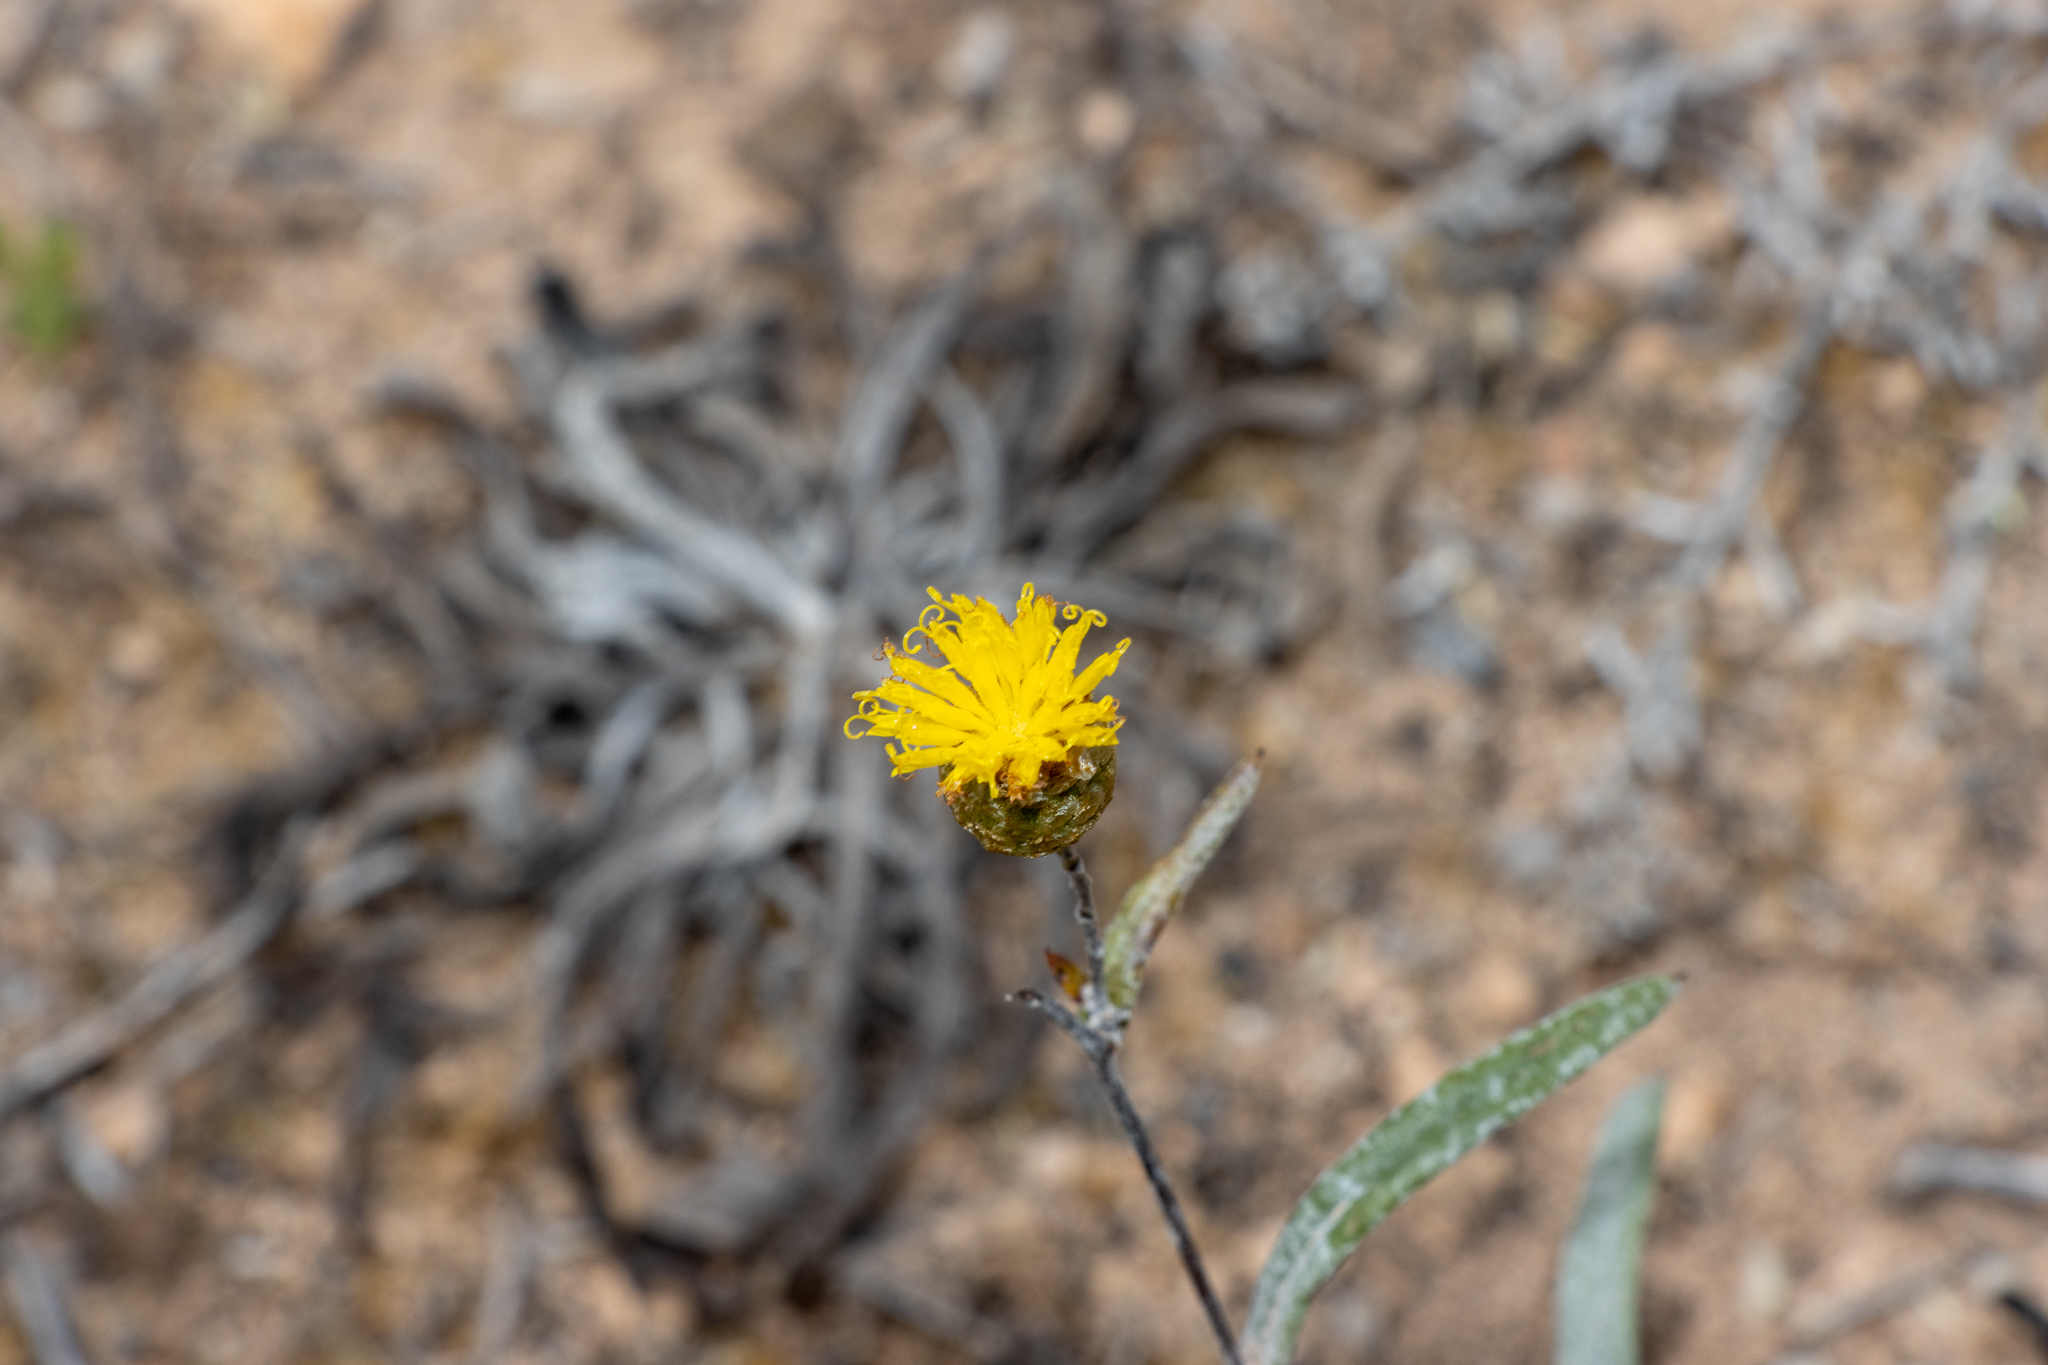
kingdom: Plantae
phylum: Tracheophyta
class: Magnoliopsida
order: Asterales
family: Asteraceae
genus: Podolepis
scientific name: Podolepis rugata
